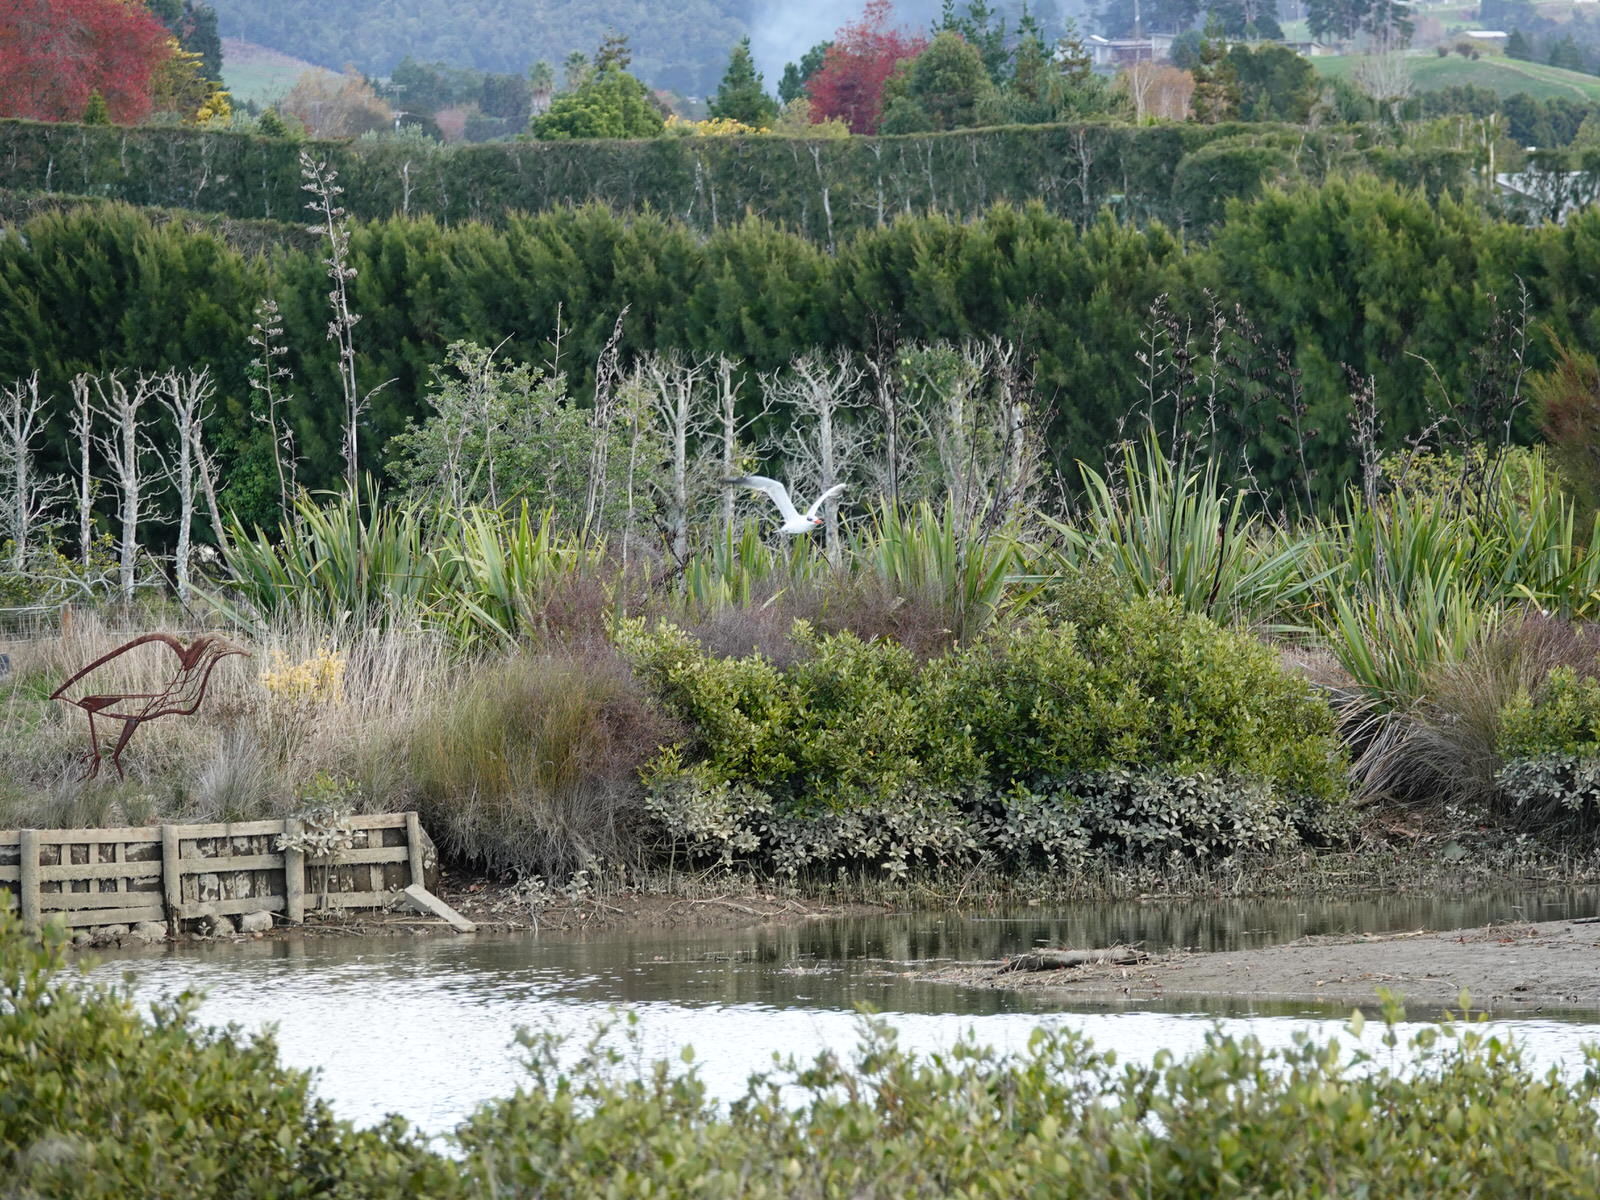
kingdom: Animalia
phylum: Chordata
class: Aves
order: Charadriiformes
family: Laridae
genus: Hydroprogne
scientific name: Hydroprogne caspia
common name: Caspian tern
